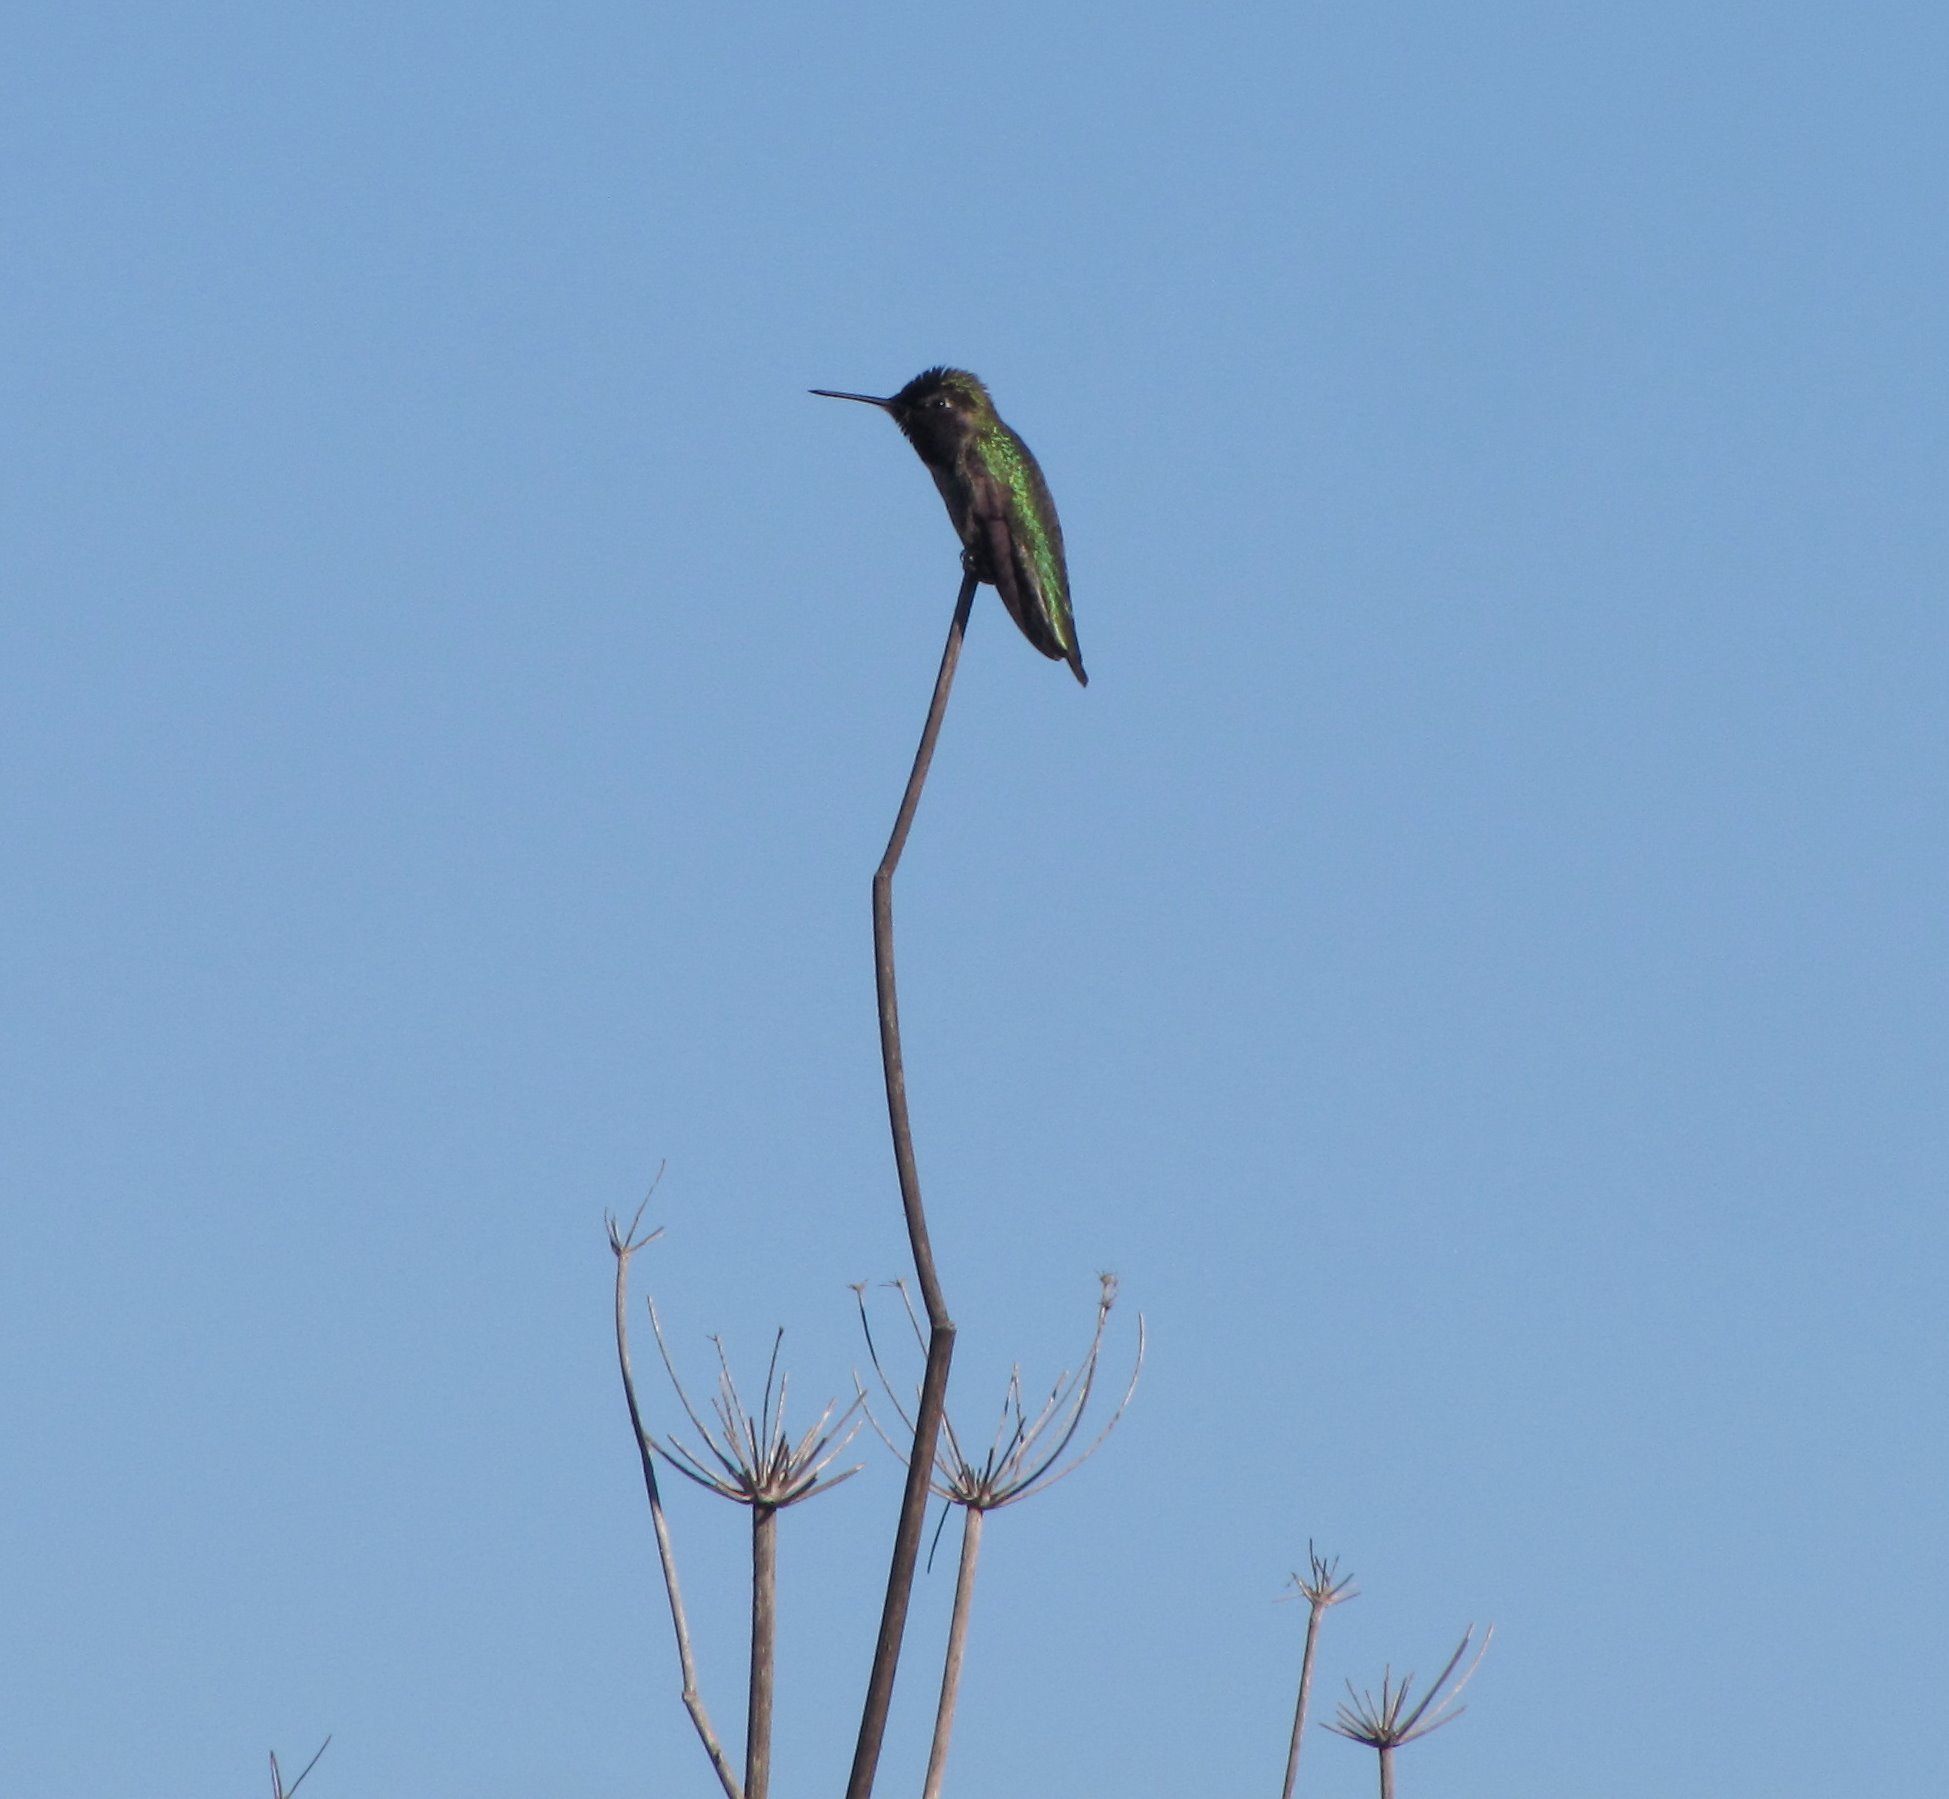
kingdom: Animalia
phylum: Chordata
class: Aves
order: Apodiformes
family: Trochilidae
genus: Calypte
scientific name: Calypte anna
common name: Anna's hummingbird
